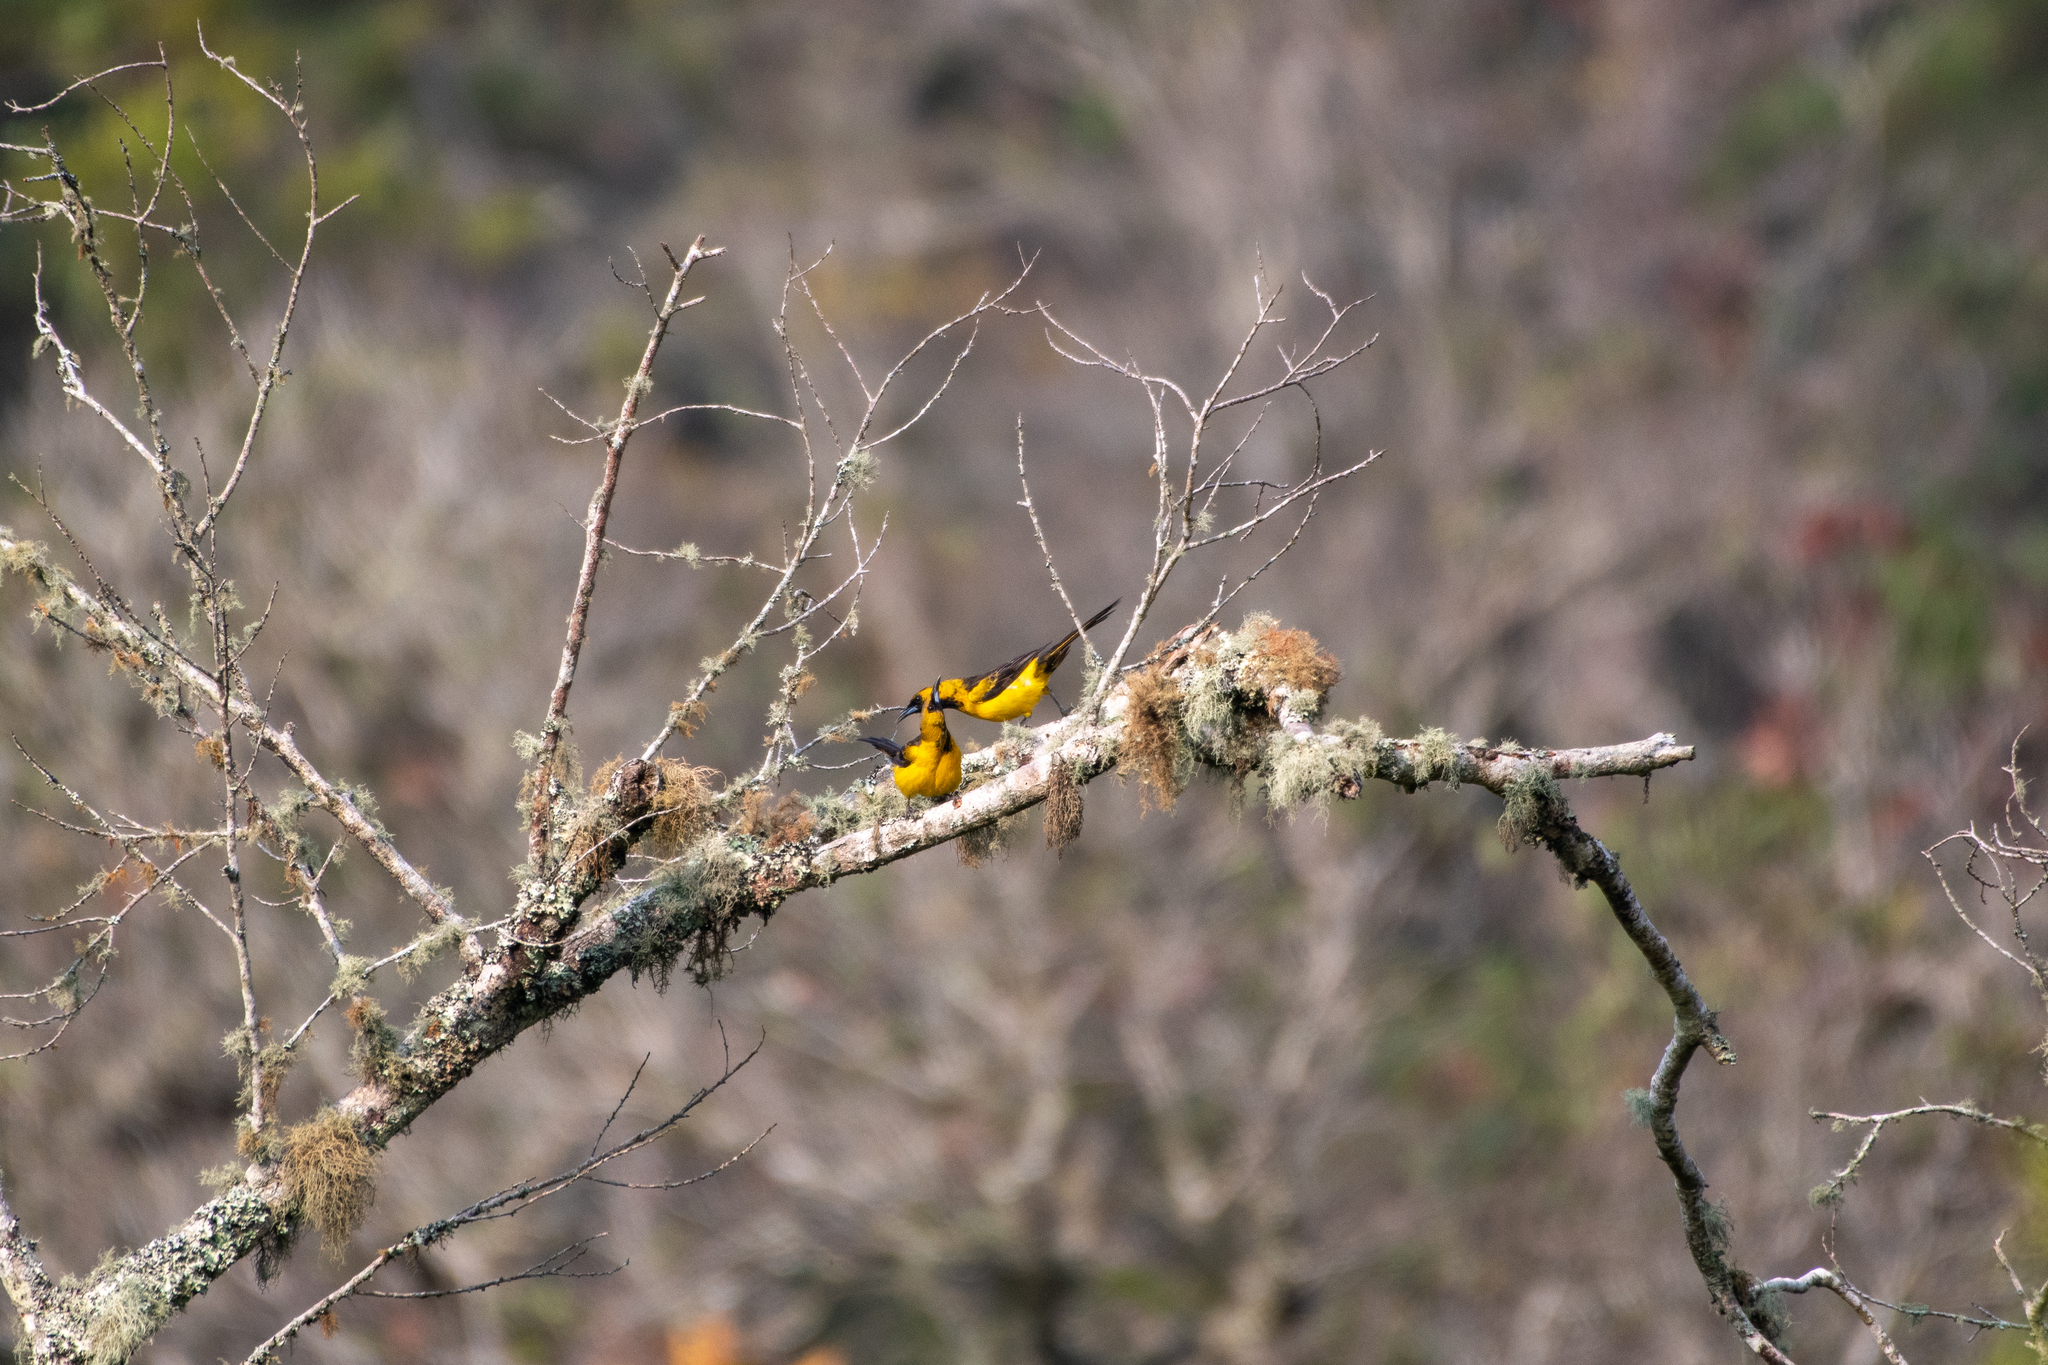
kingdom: Animalia
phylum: Chordata
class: Aves
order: Passeriformes
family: Icteridae
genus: Icterus
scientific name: Icterus wagleri
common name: Black-vented oriole
